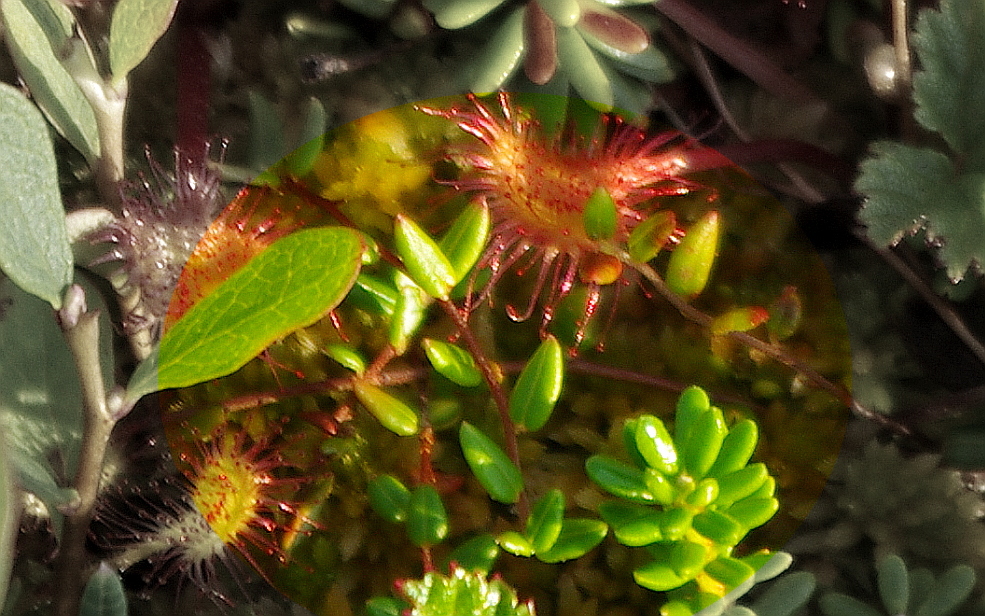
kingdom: Plantae
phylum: Tracheophyta
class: Magnoliopsida
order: Ericales
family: Ericaceae
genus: Vaccinium
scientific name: Vaccinium oxycoccos
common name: Cranberry
